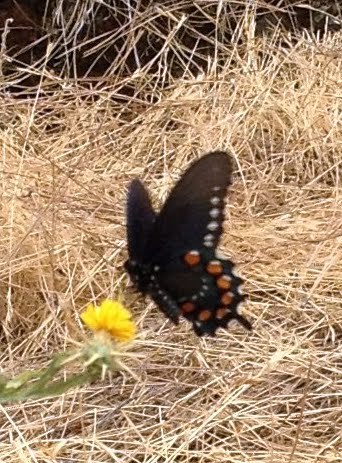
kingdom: Animalia
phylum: Arthropoda
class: Insecta
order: Lepidoptera
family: Papilionidae
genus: Battus
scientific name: Battus philenor
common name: Pipevine swallowtail
